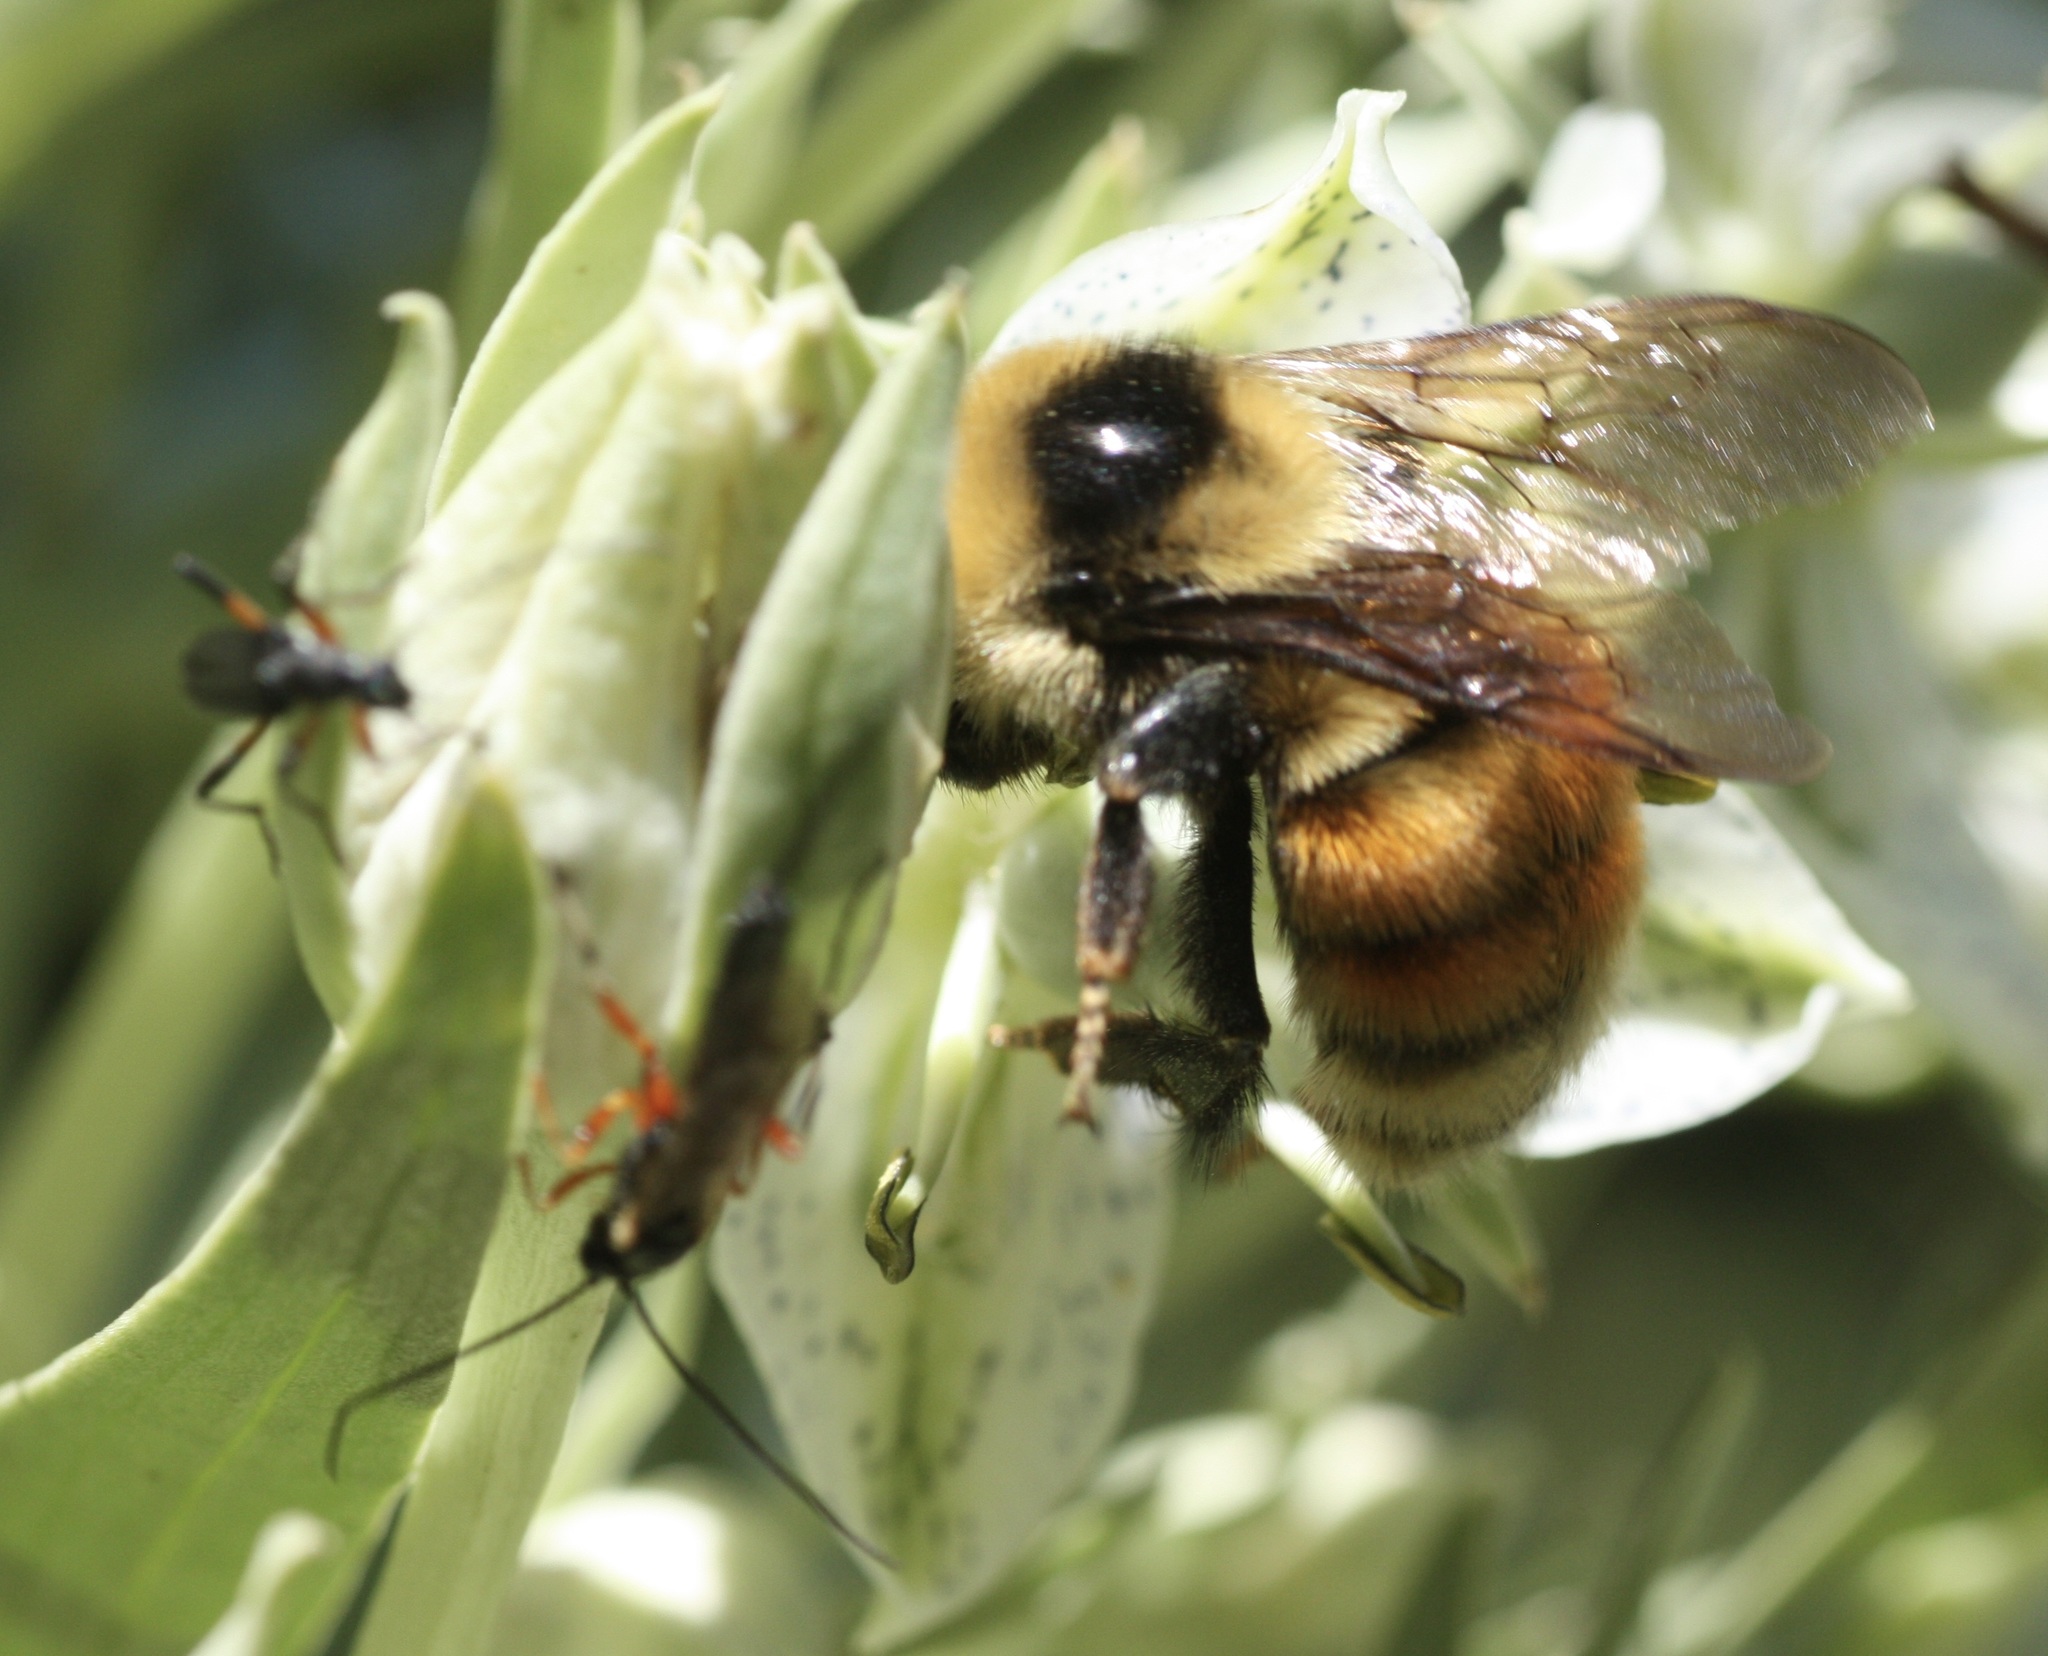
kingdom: Animalia
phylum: Arthropoda
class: Insecta
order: Hymenoptera
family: Apidae
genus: Bombus
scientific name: Bombus rufocinctus
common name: Red-belted bumble bee
